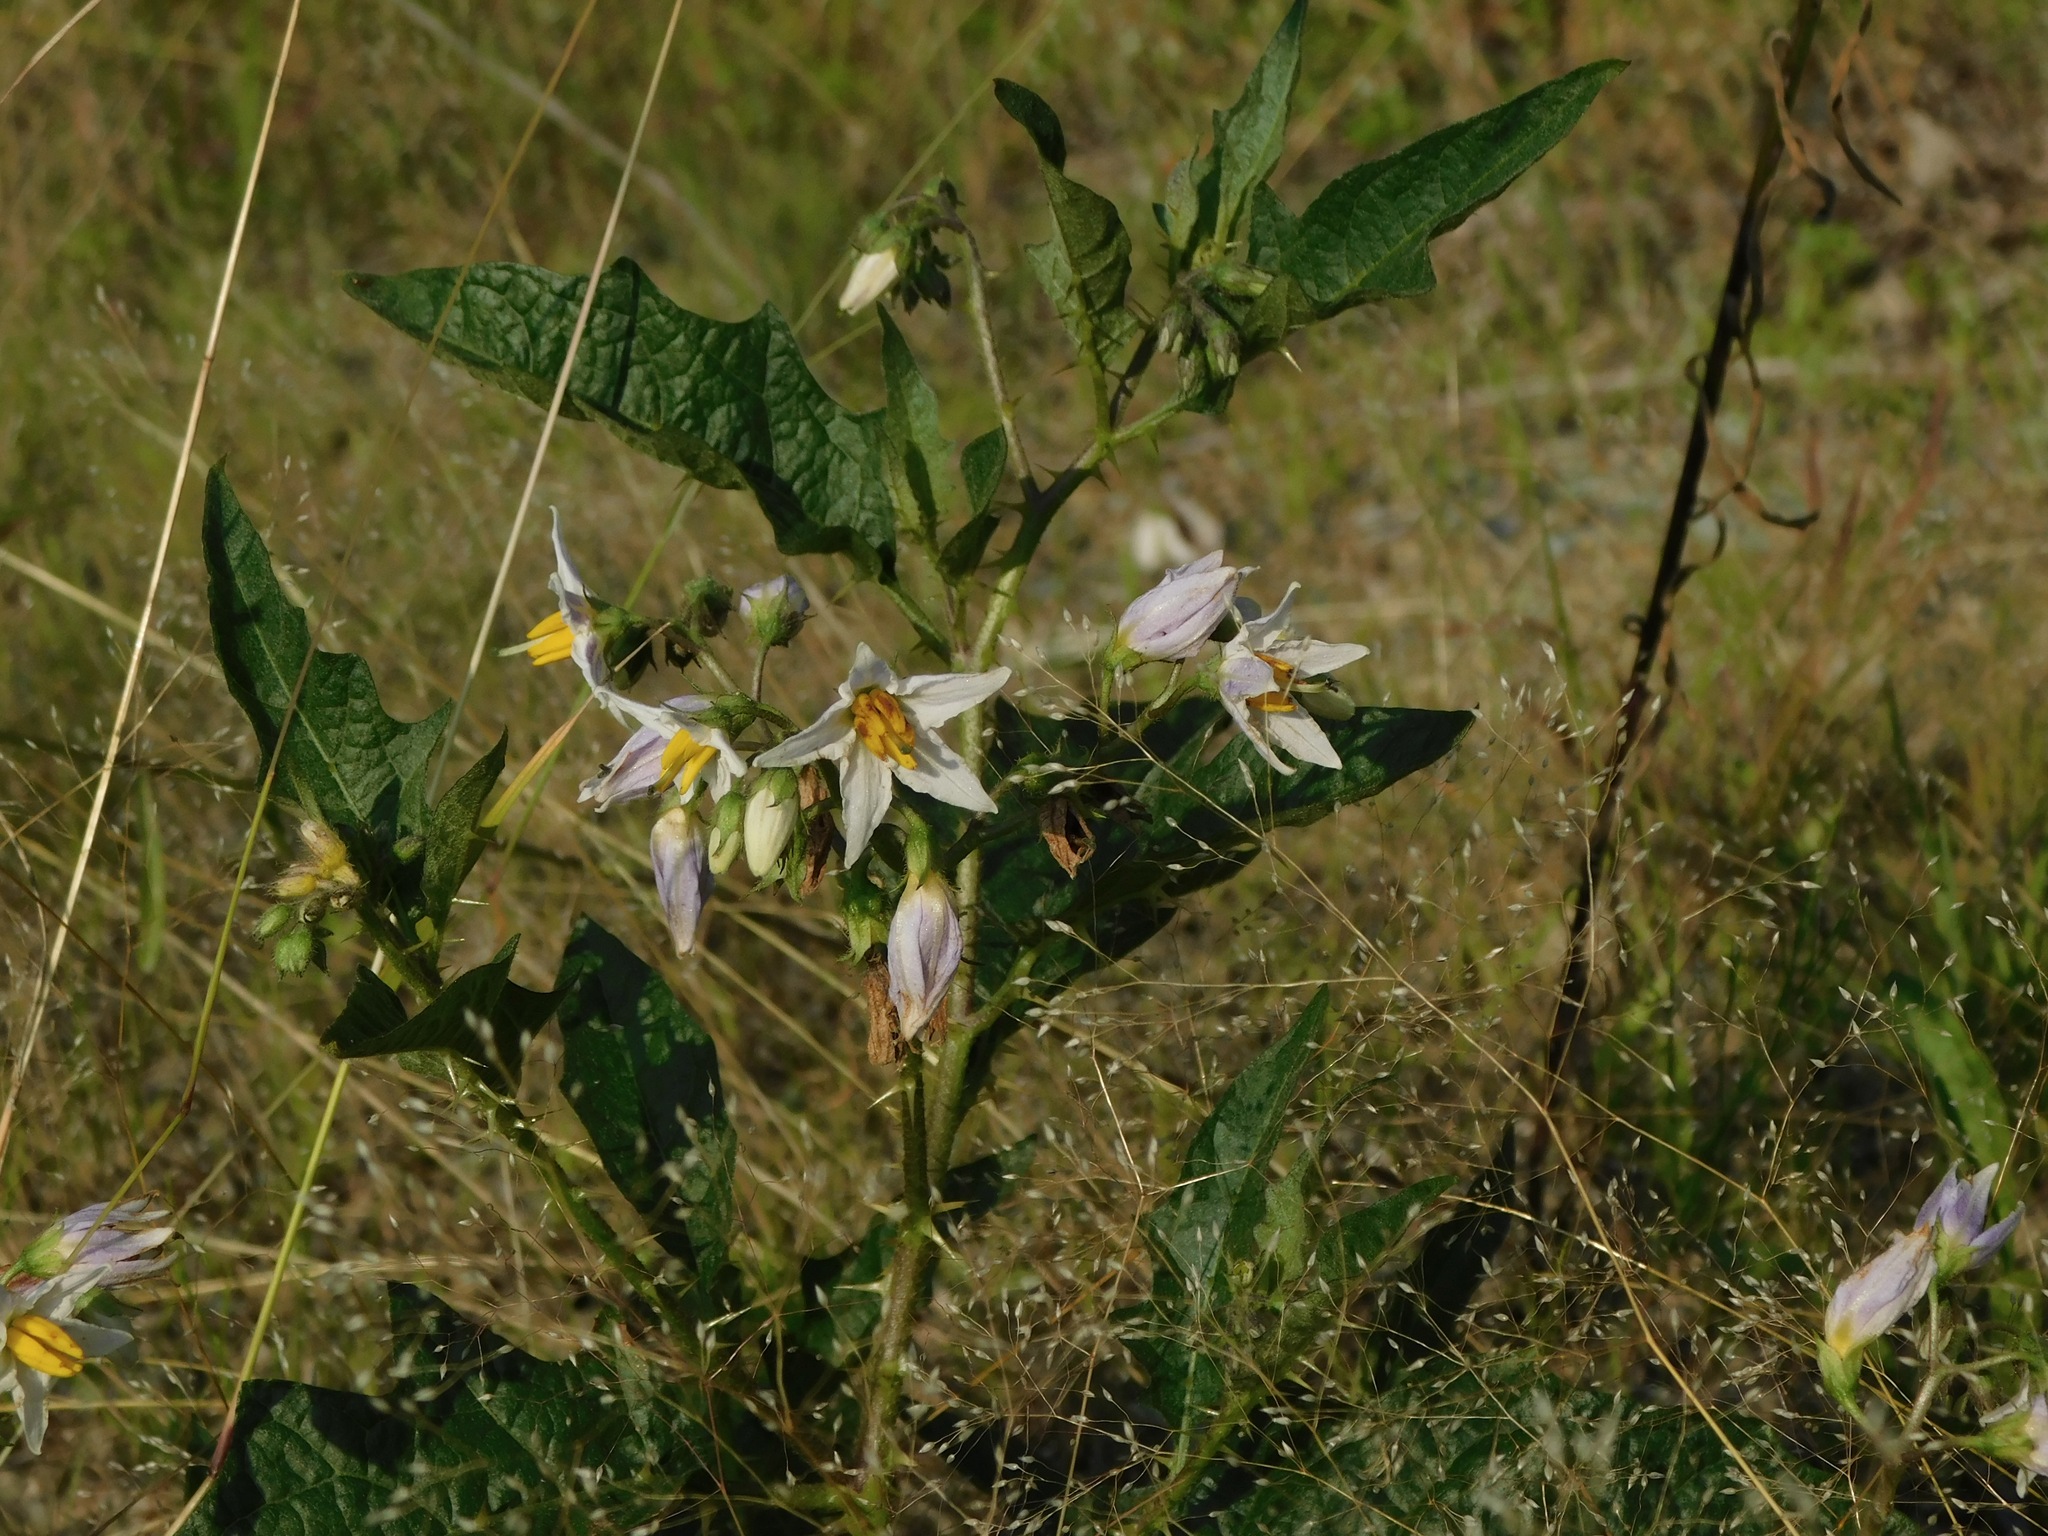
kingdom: Plantae
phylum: Tracheophyta
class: Magnoliopsida
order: Solanales
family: Solanaceae
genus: Solanum
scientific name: Solanum carolinense
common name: Horse-nettle
